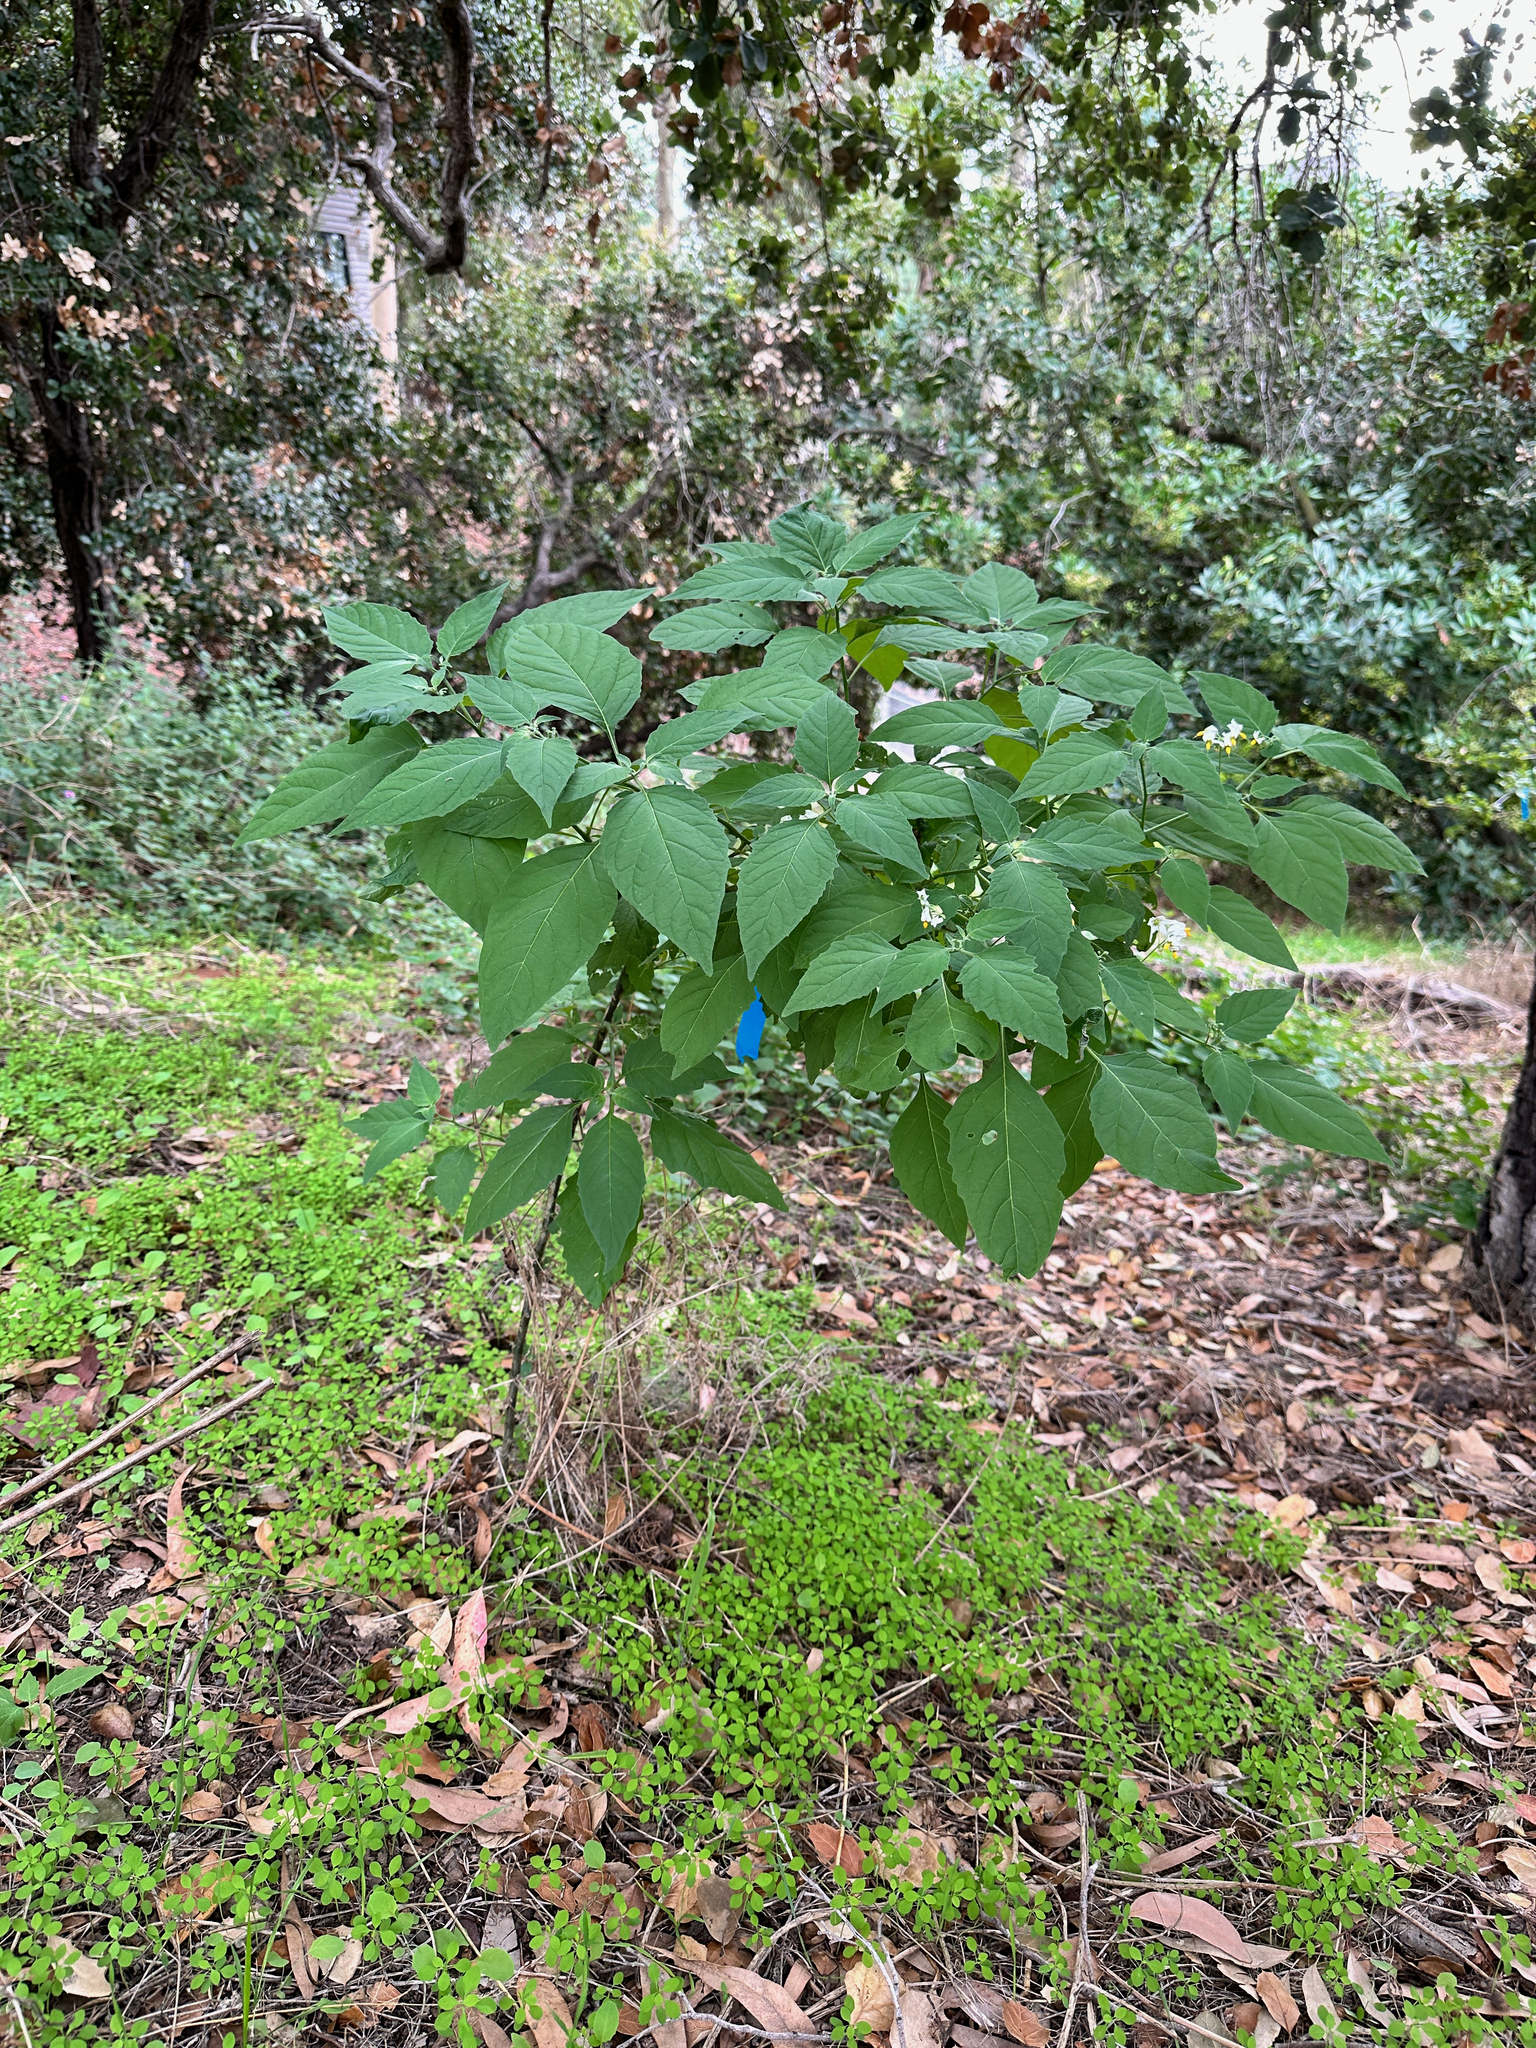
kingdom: Plantae
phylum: Tracheophyta
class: Magnoliopsida
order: Solanales
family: Solanaceae
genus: Solanum
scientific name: Solanum douglasii
